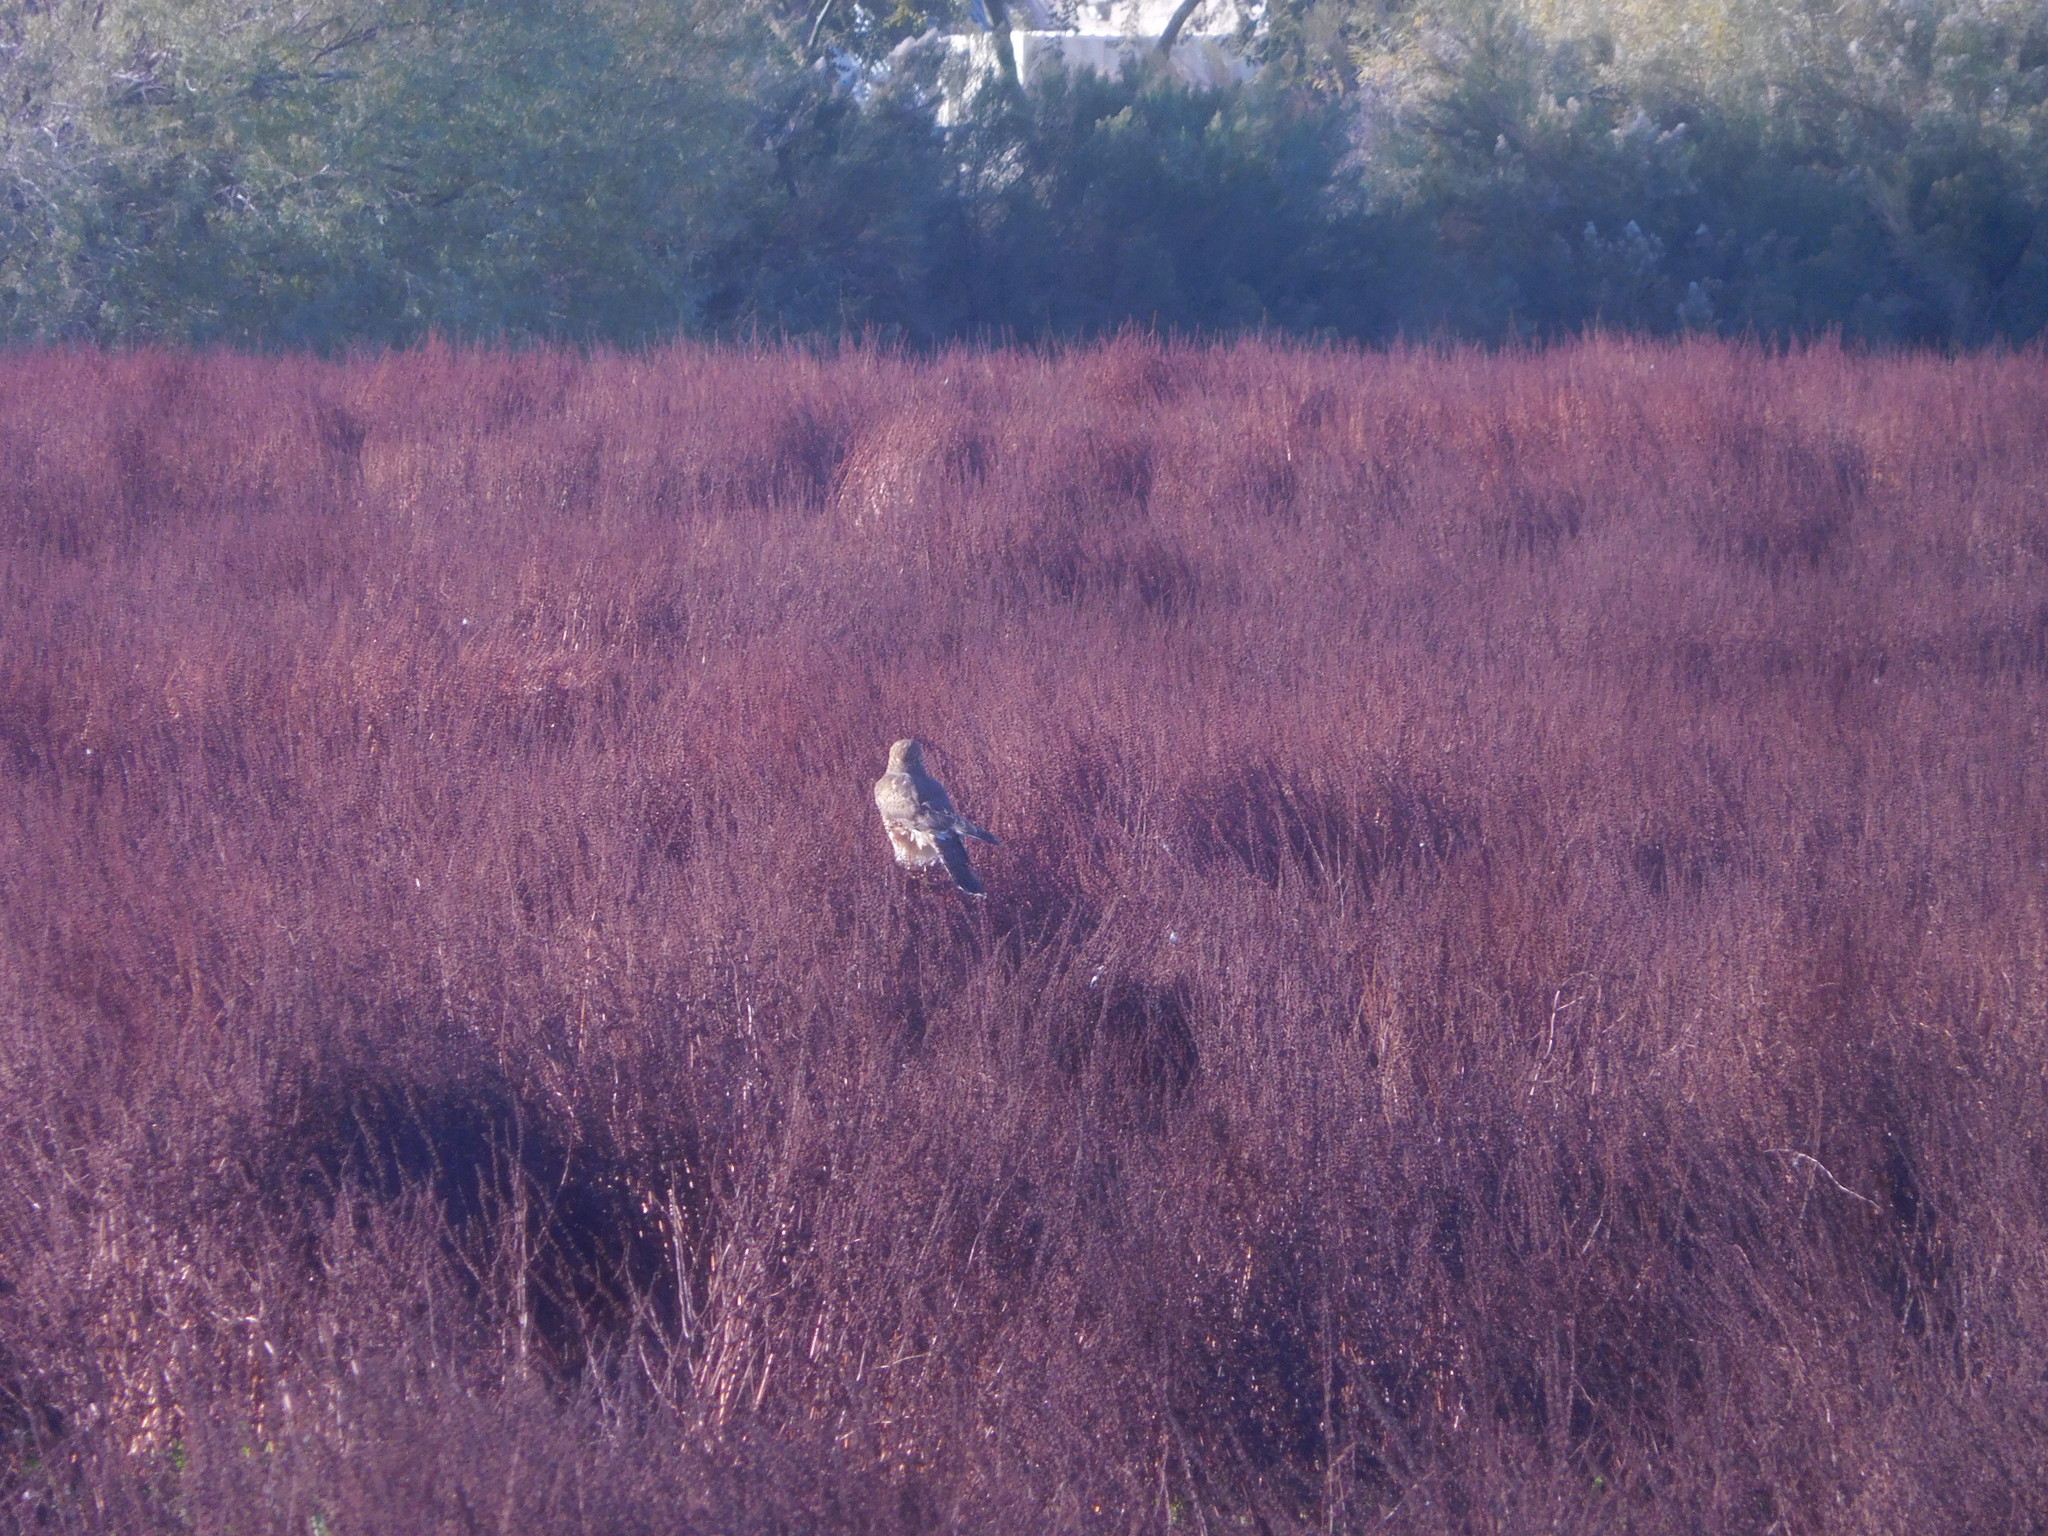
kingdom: Animalia
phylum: Chordata
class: Aves
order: Accipitriformes
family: Accipitridae
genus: Circus
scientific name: Circus cyaneus
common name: Hen harrier
